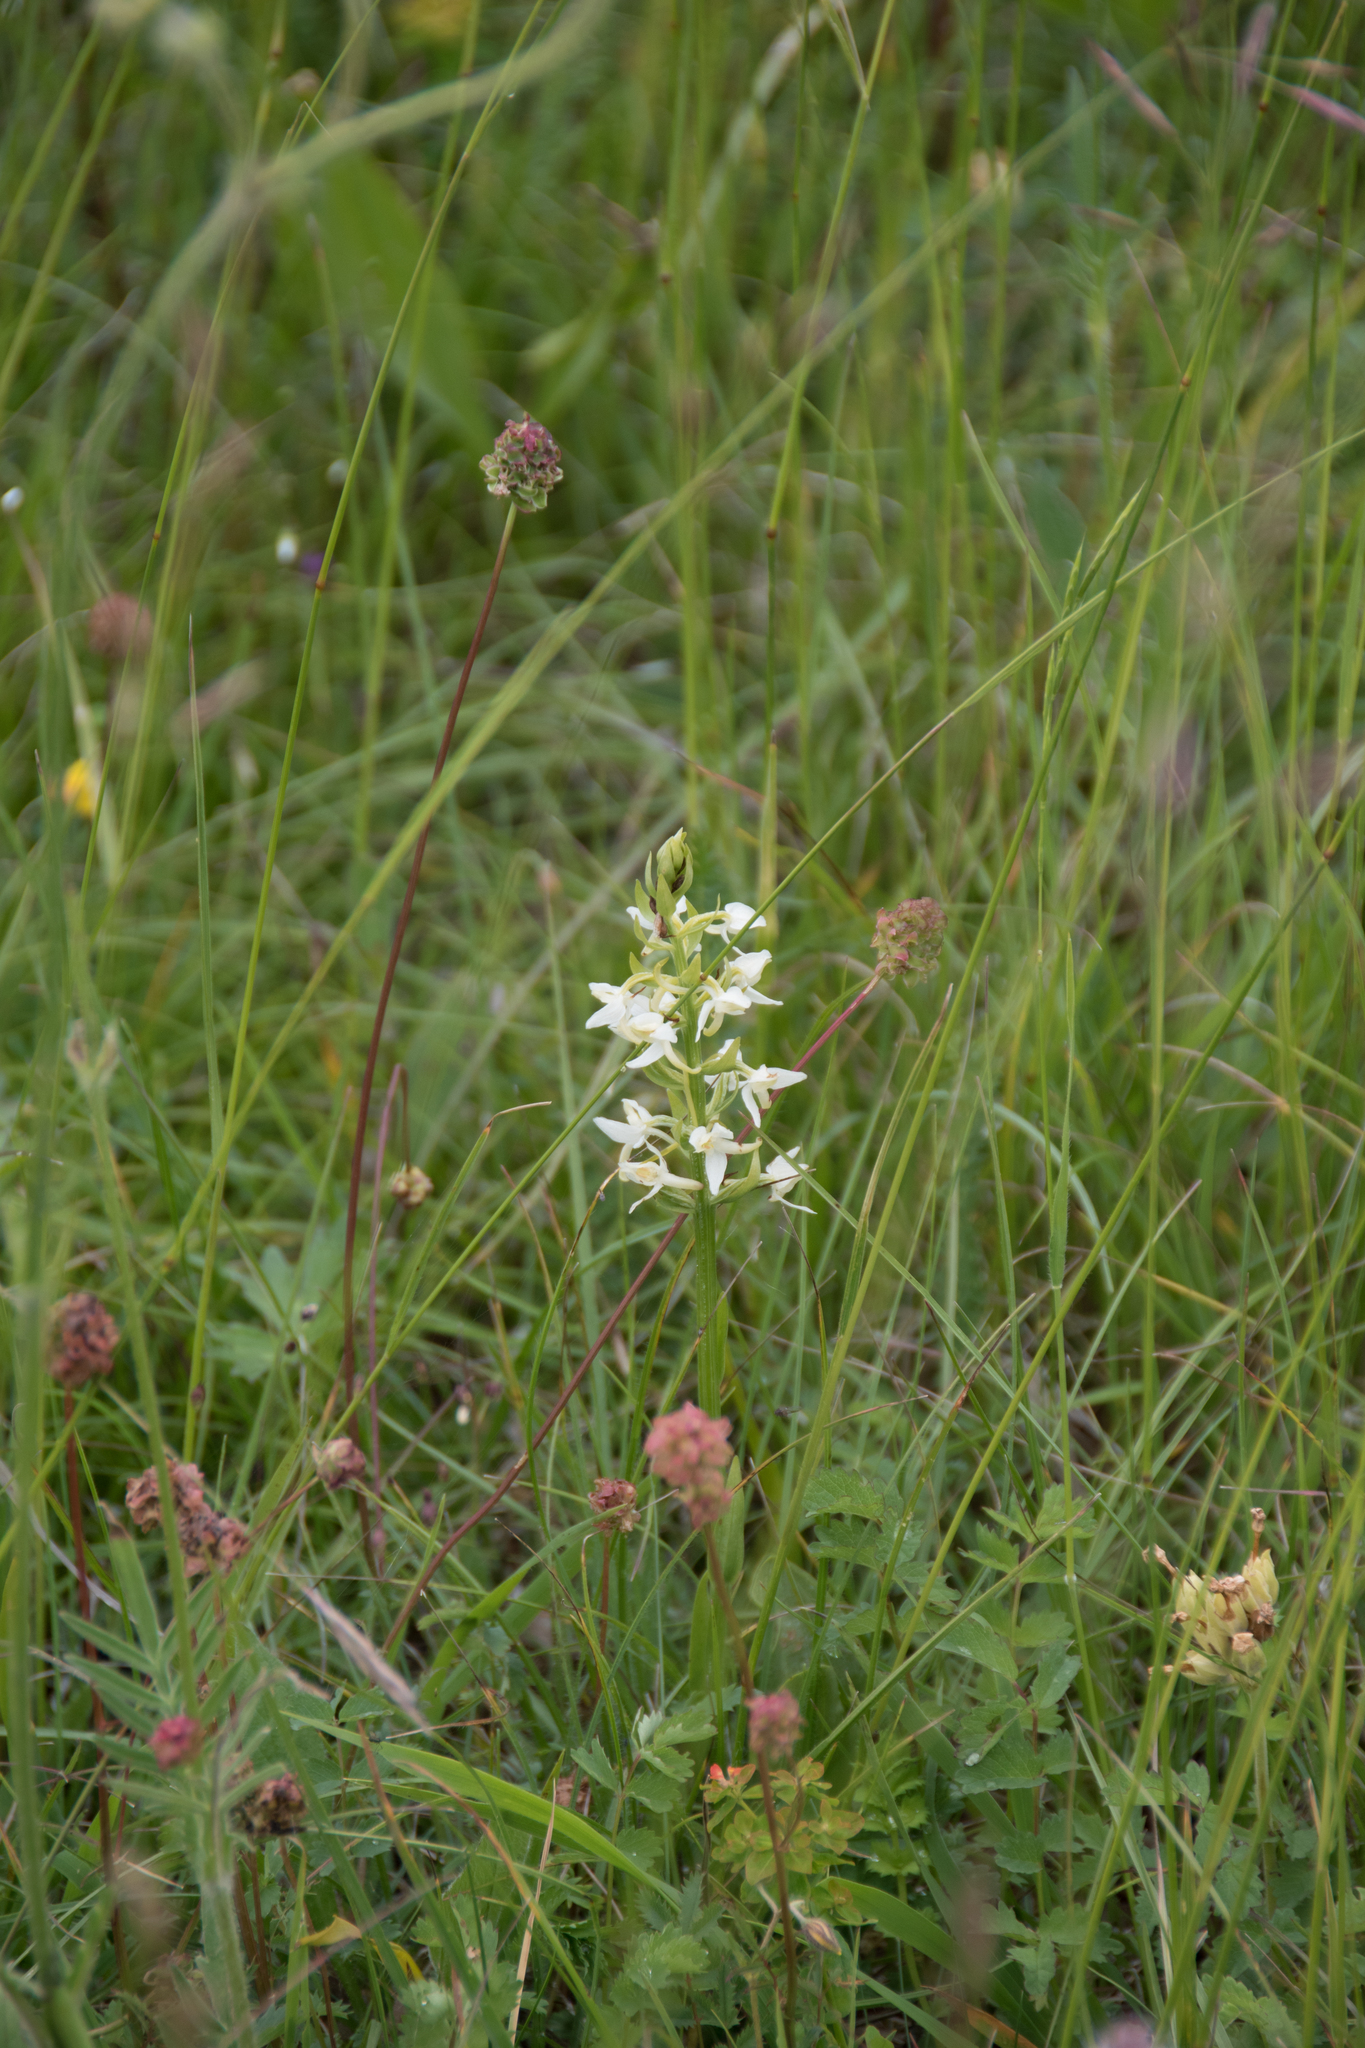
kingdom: Plantae
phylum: Tracheophyta
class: Liliopsida
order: Asparagales
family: Orchidaceae
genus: Platanthera
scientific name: Platanthera bifolia
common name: Lesser butterfly-orchid
